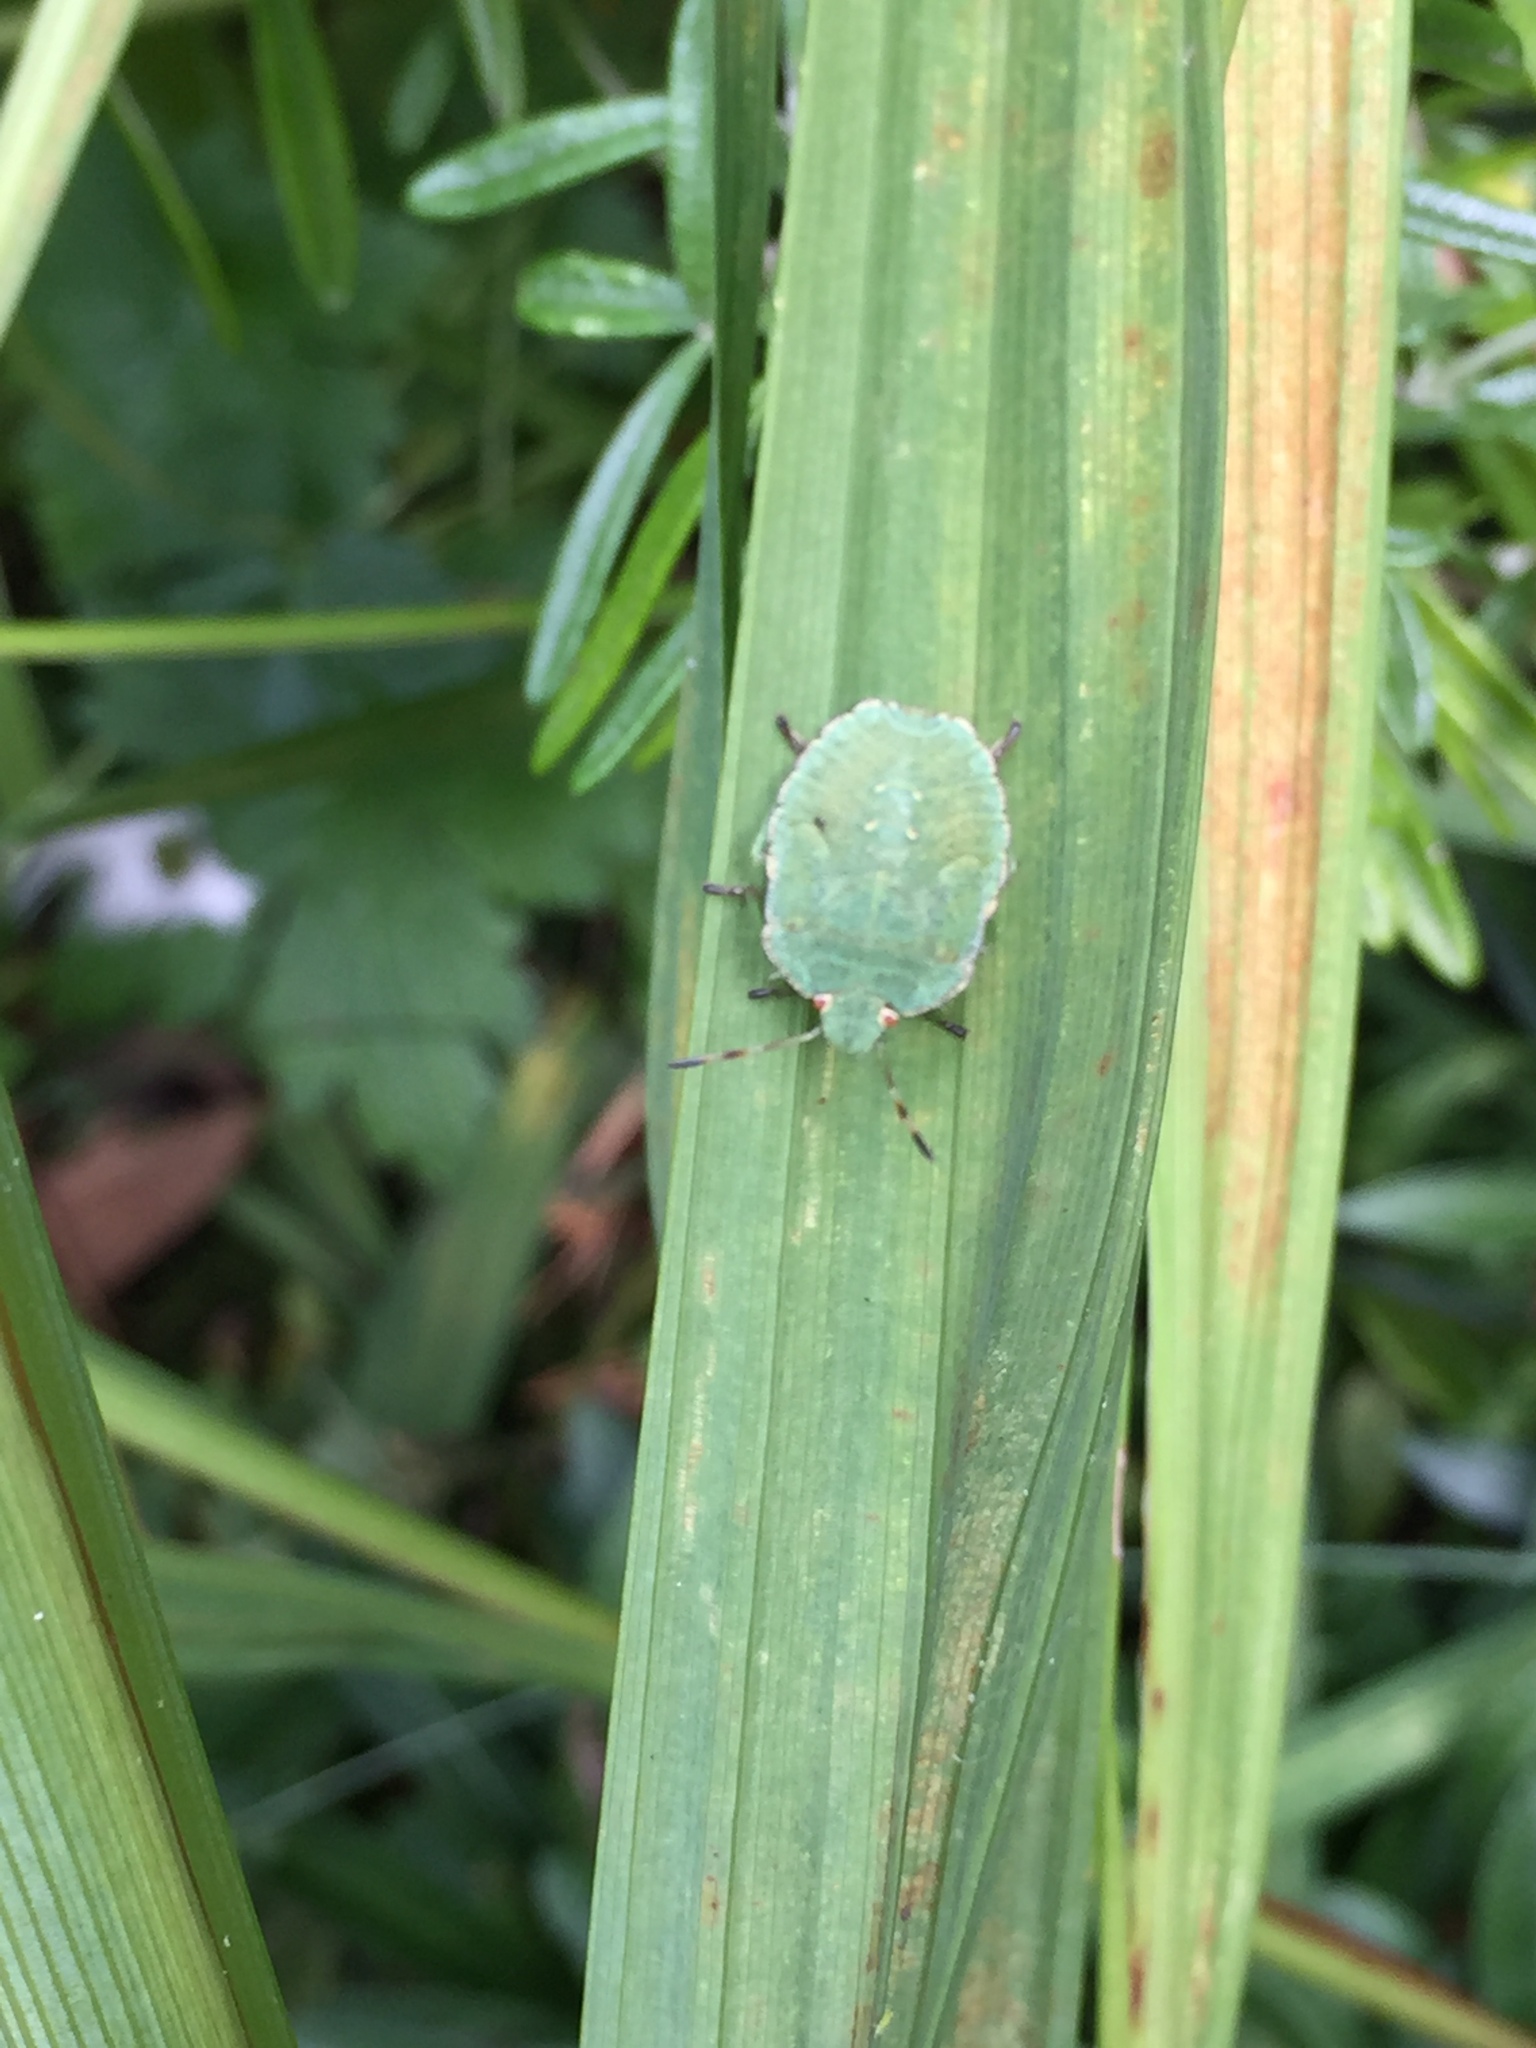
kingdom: Animalia
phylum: Arthropoda
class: Insecta
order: Hemiptera
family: Pentatomidae
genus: Palomena
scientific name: Palomena prasina
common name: Green shieldbug
